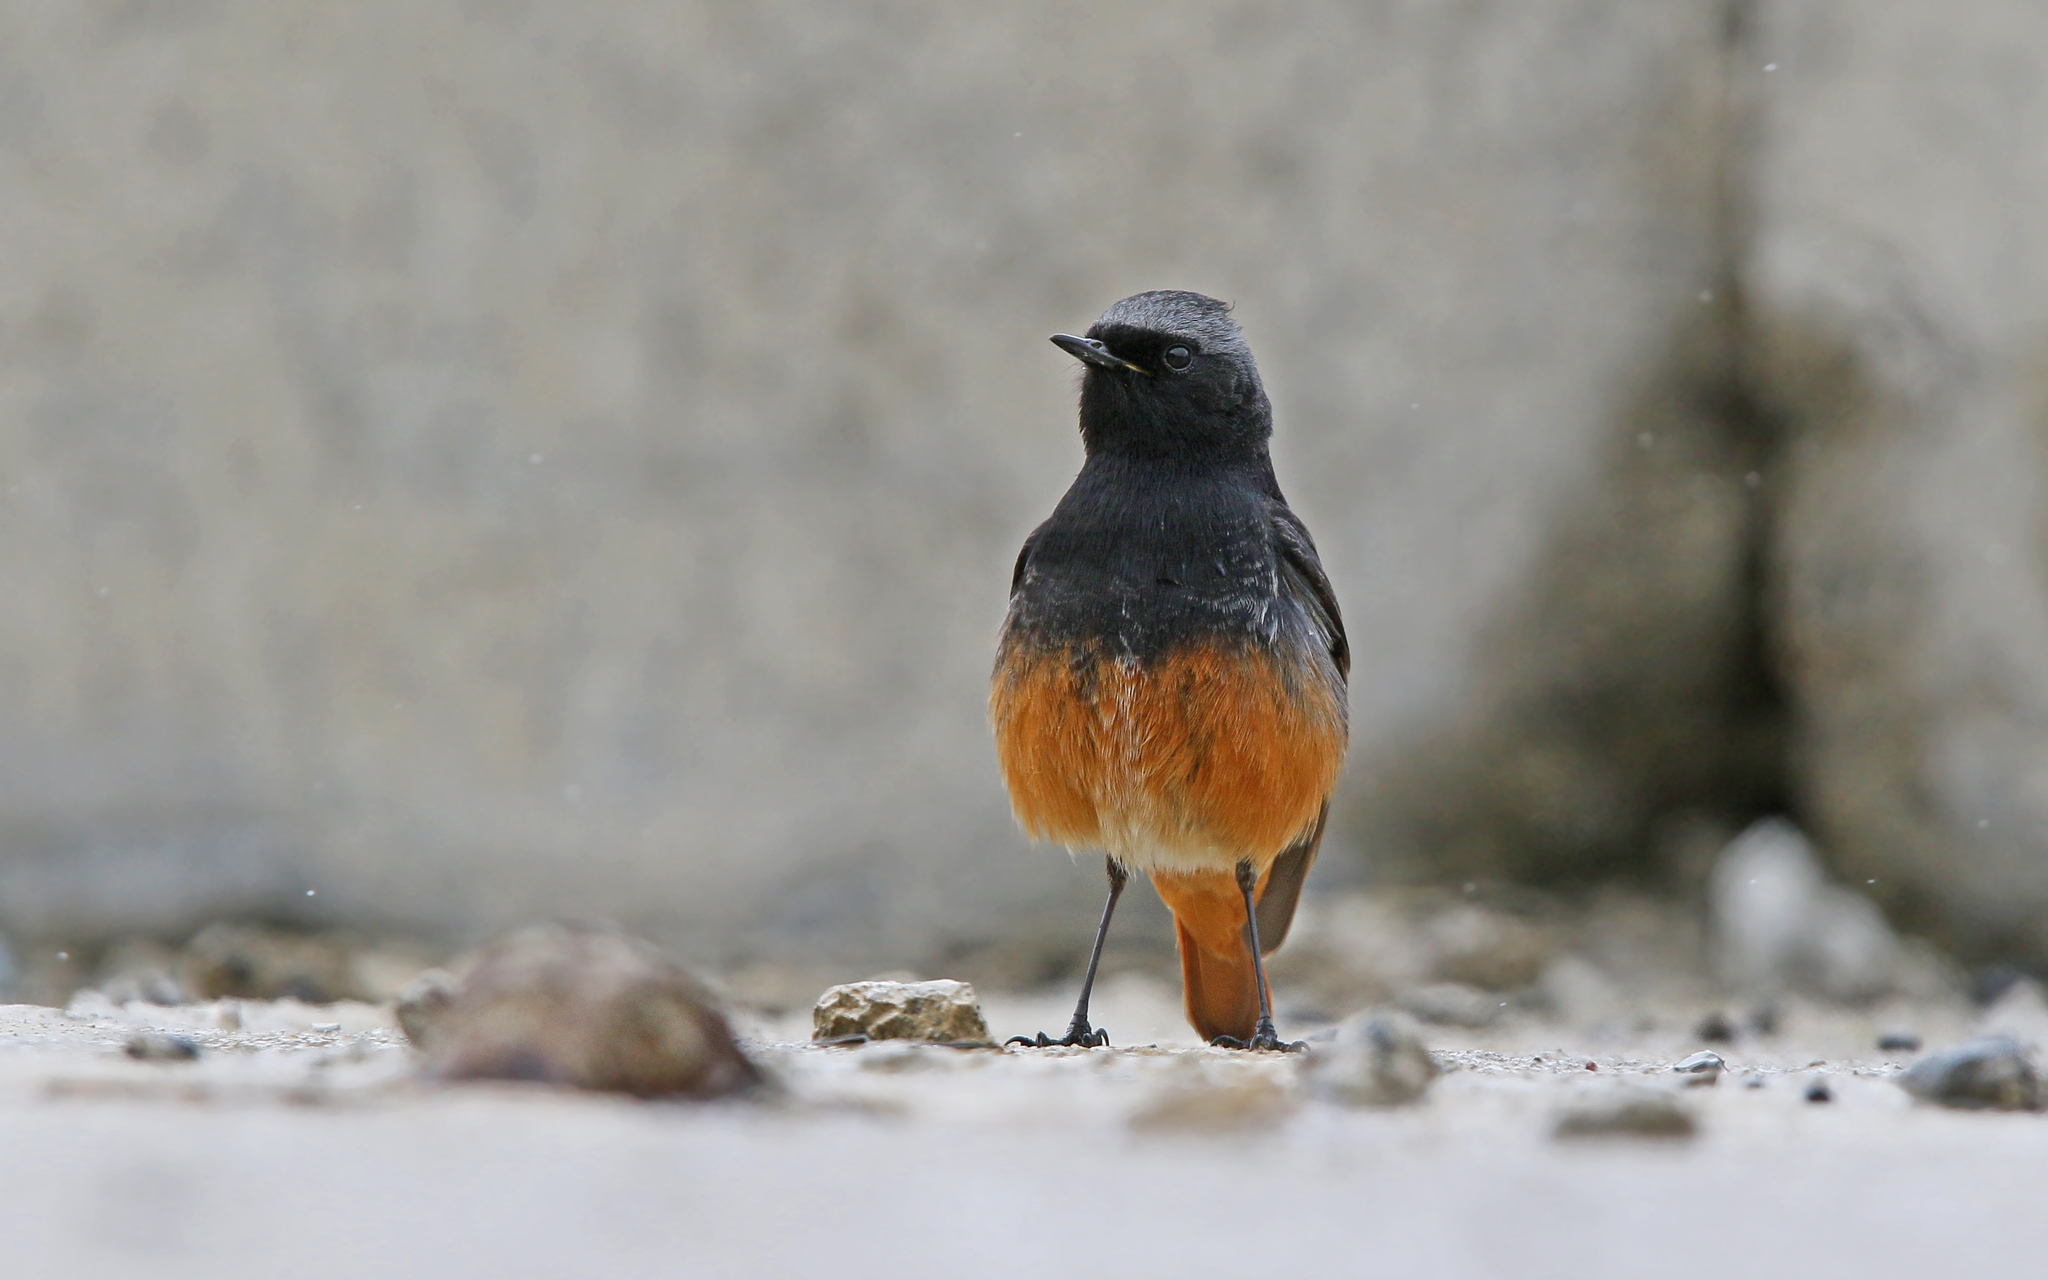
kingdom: Animalia
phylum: Chordata
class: Aves
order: Passeriformes
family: Muscicapidae
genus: Phoenicurus
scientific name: Phoenicurus ochruros
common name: Black redstart
